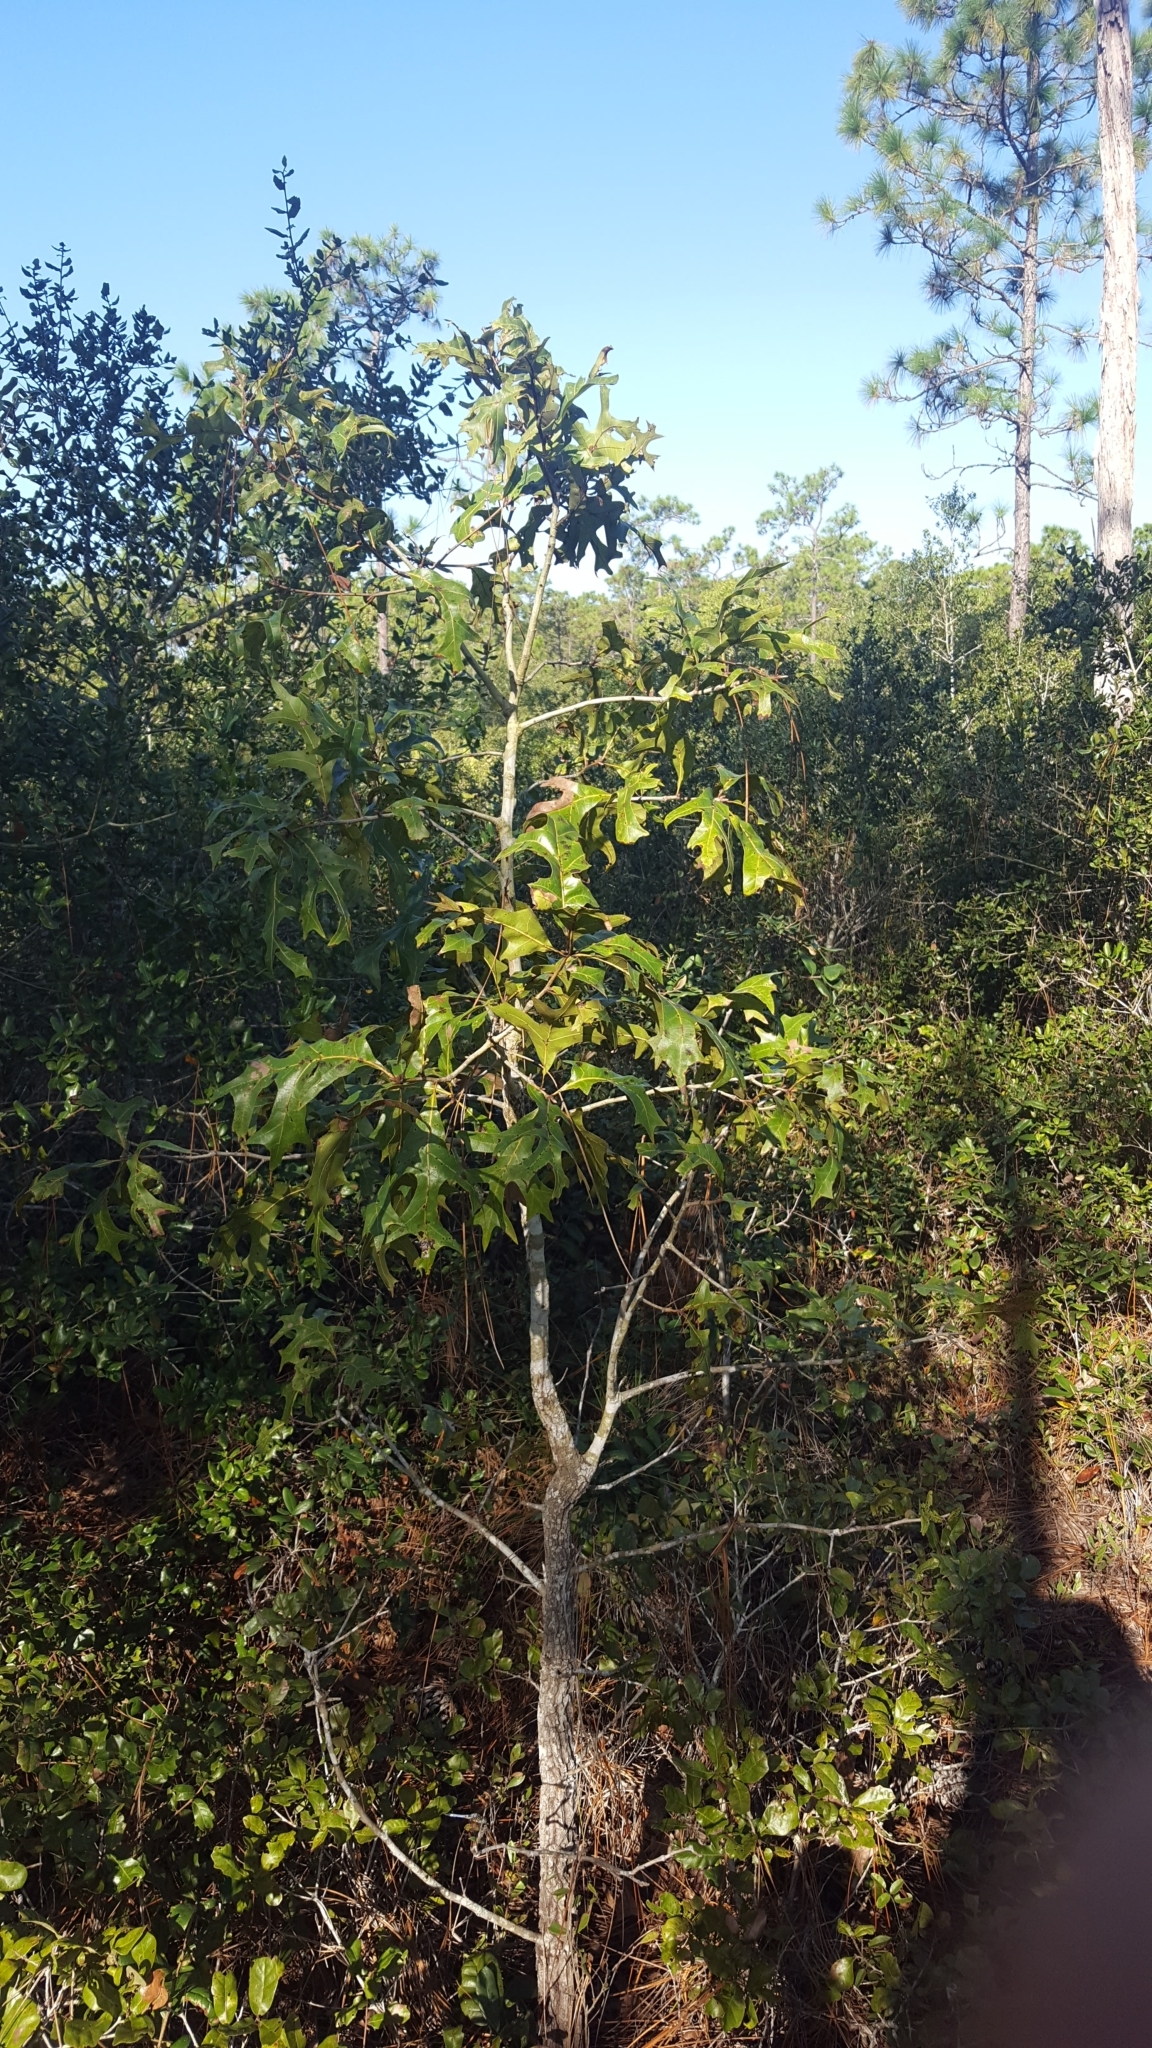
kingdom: Plantae
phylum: Tracheophyta
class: Magnoliopsida
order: Fagales
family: Fagaceae
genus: Quercus
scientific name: Quercus laevis
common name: Turkey oak
